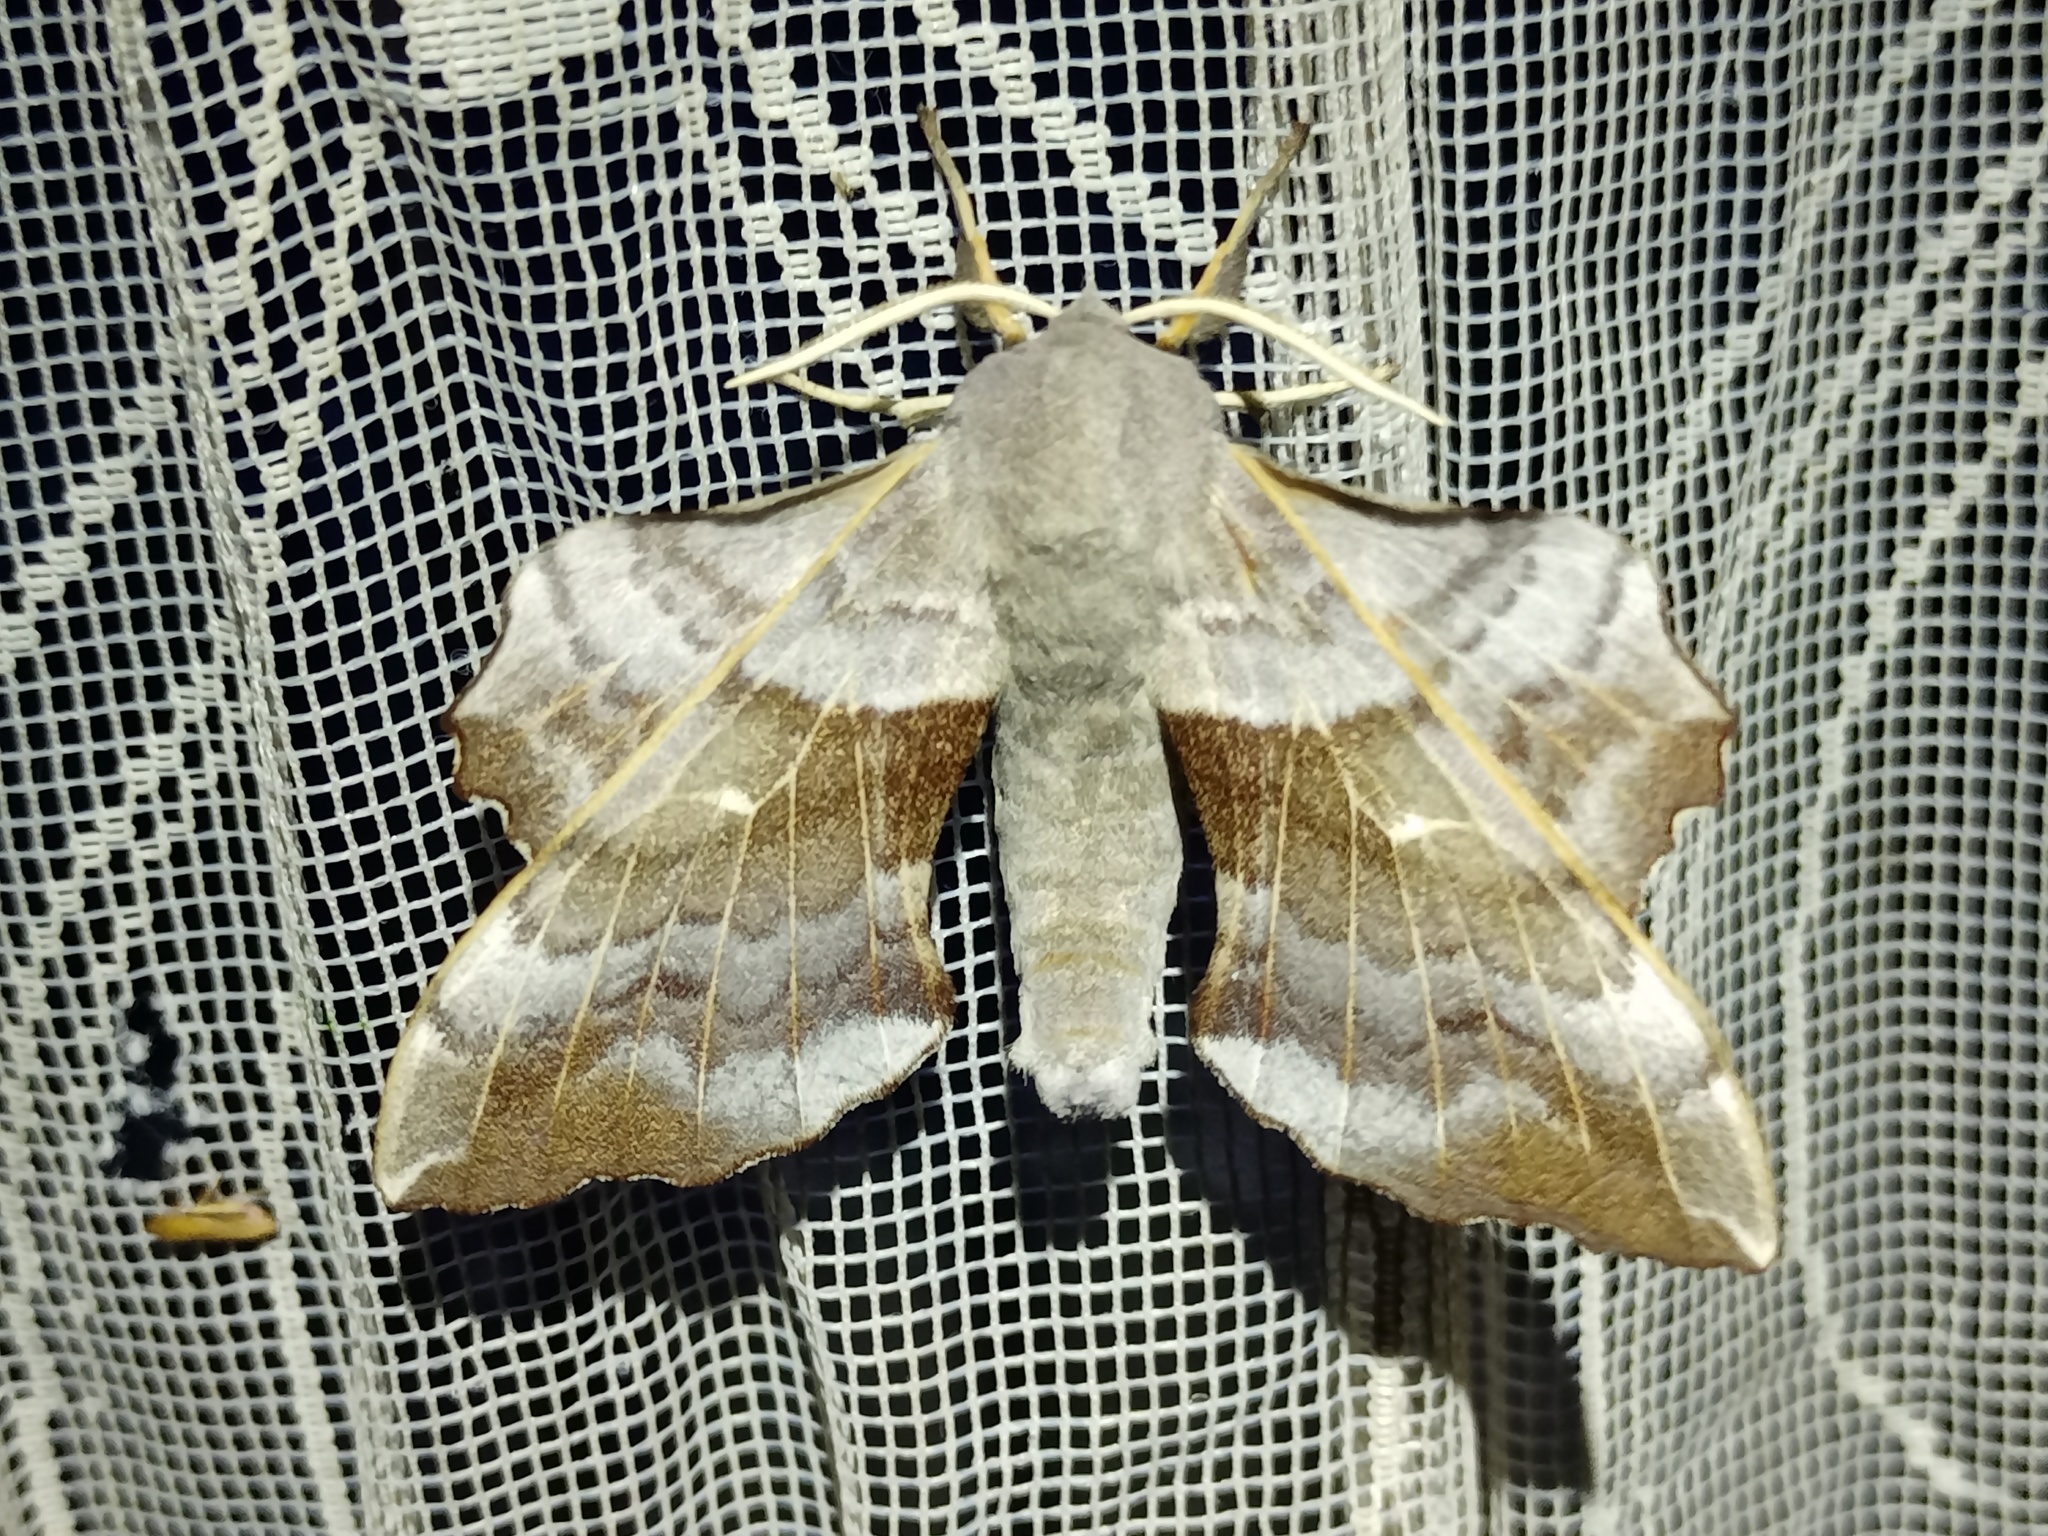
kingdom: Animalia
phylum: Arthropoda
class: Insecta
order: Lepidoptera
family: Sphingidae
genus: Laothoe
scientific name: Laothoe populi
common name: Poplar hawk-moth
